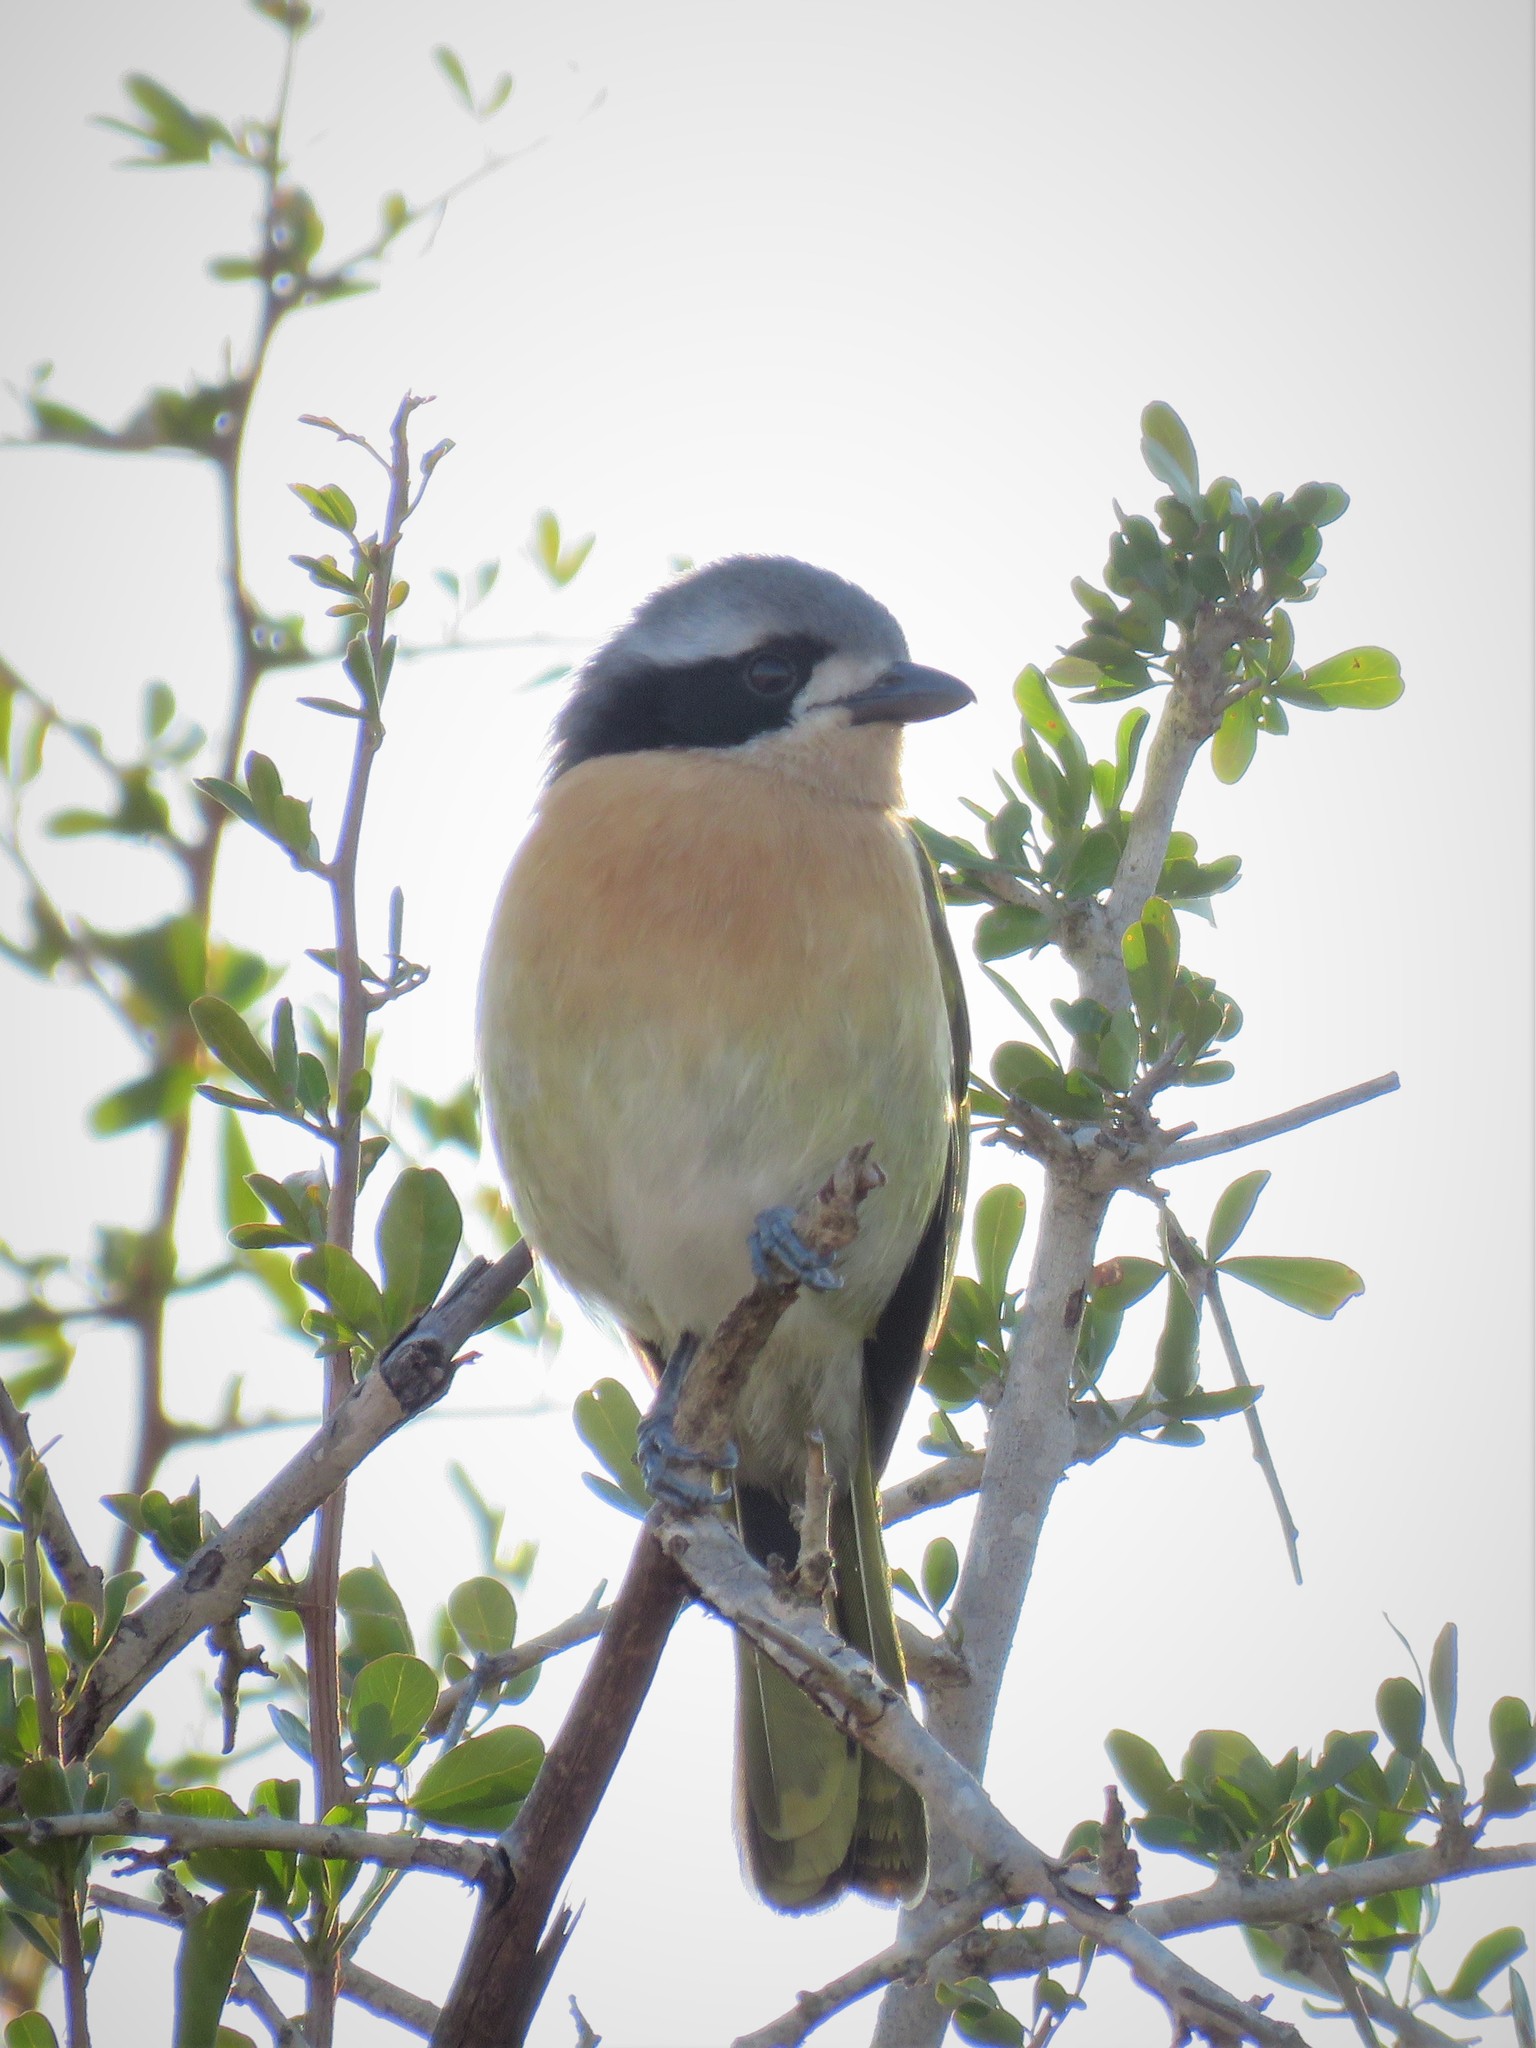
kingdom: Animalia
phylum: Chordata
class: Aves
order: Passeriformes
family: Malaconotidae
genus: Chlorophoneus
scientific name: Chlorophoneus olivaceus
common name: Olive bushshrike
